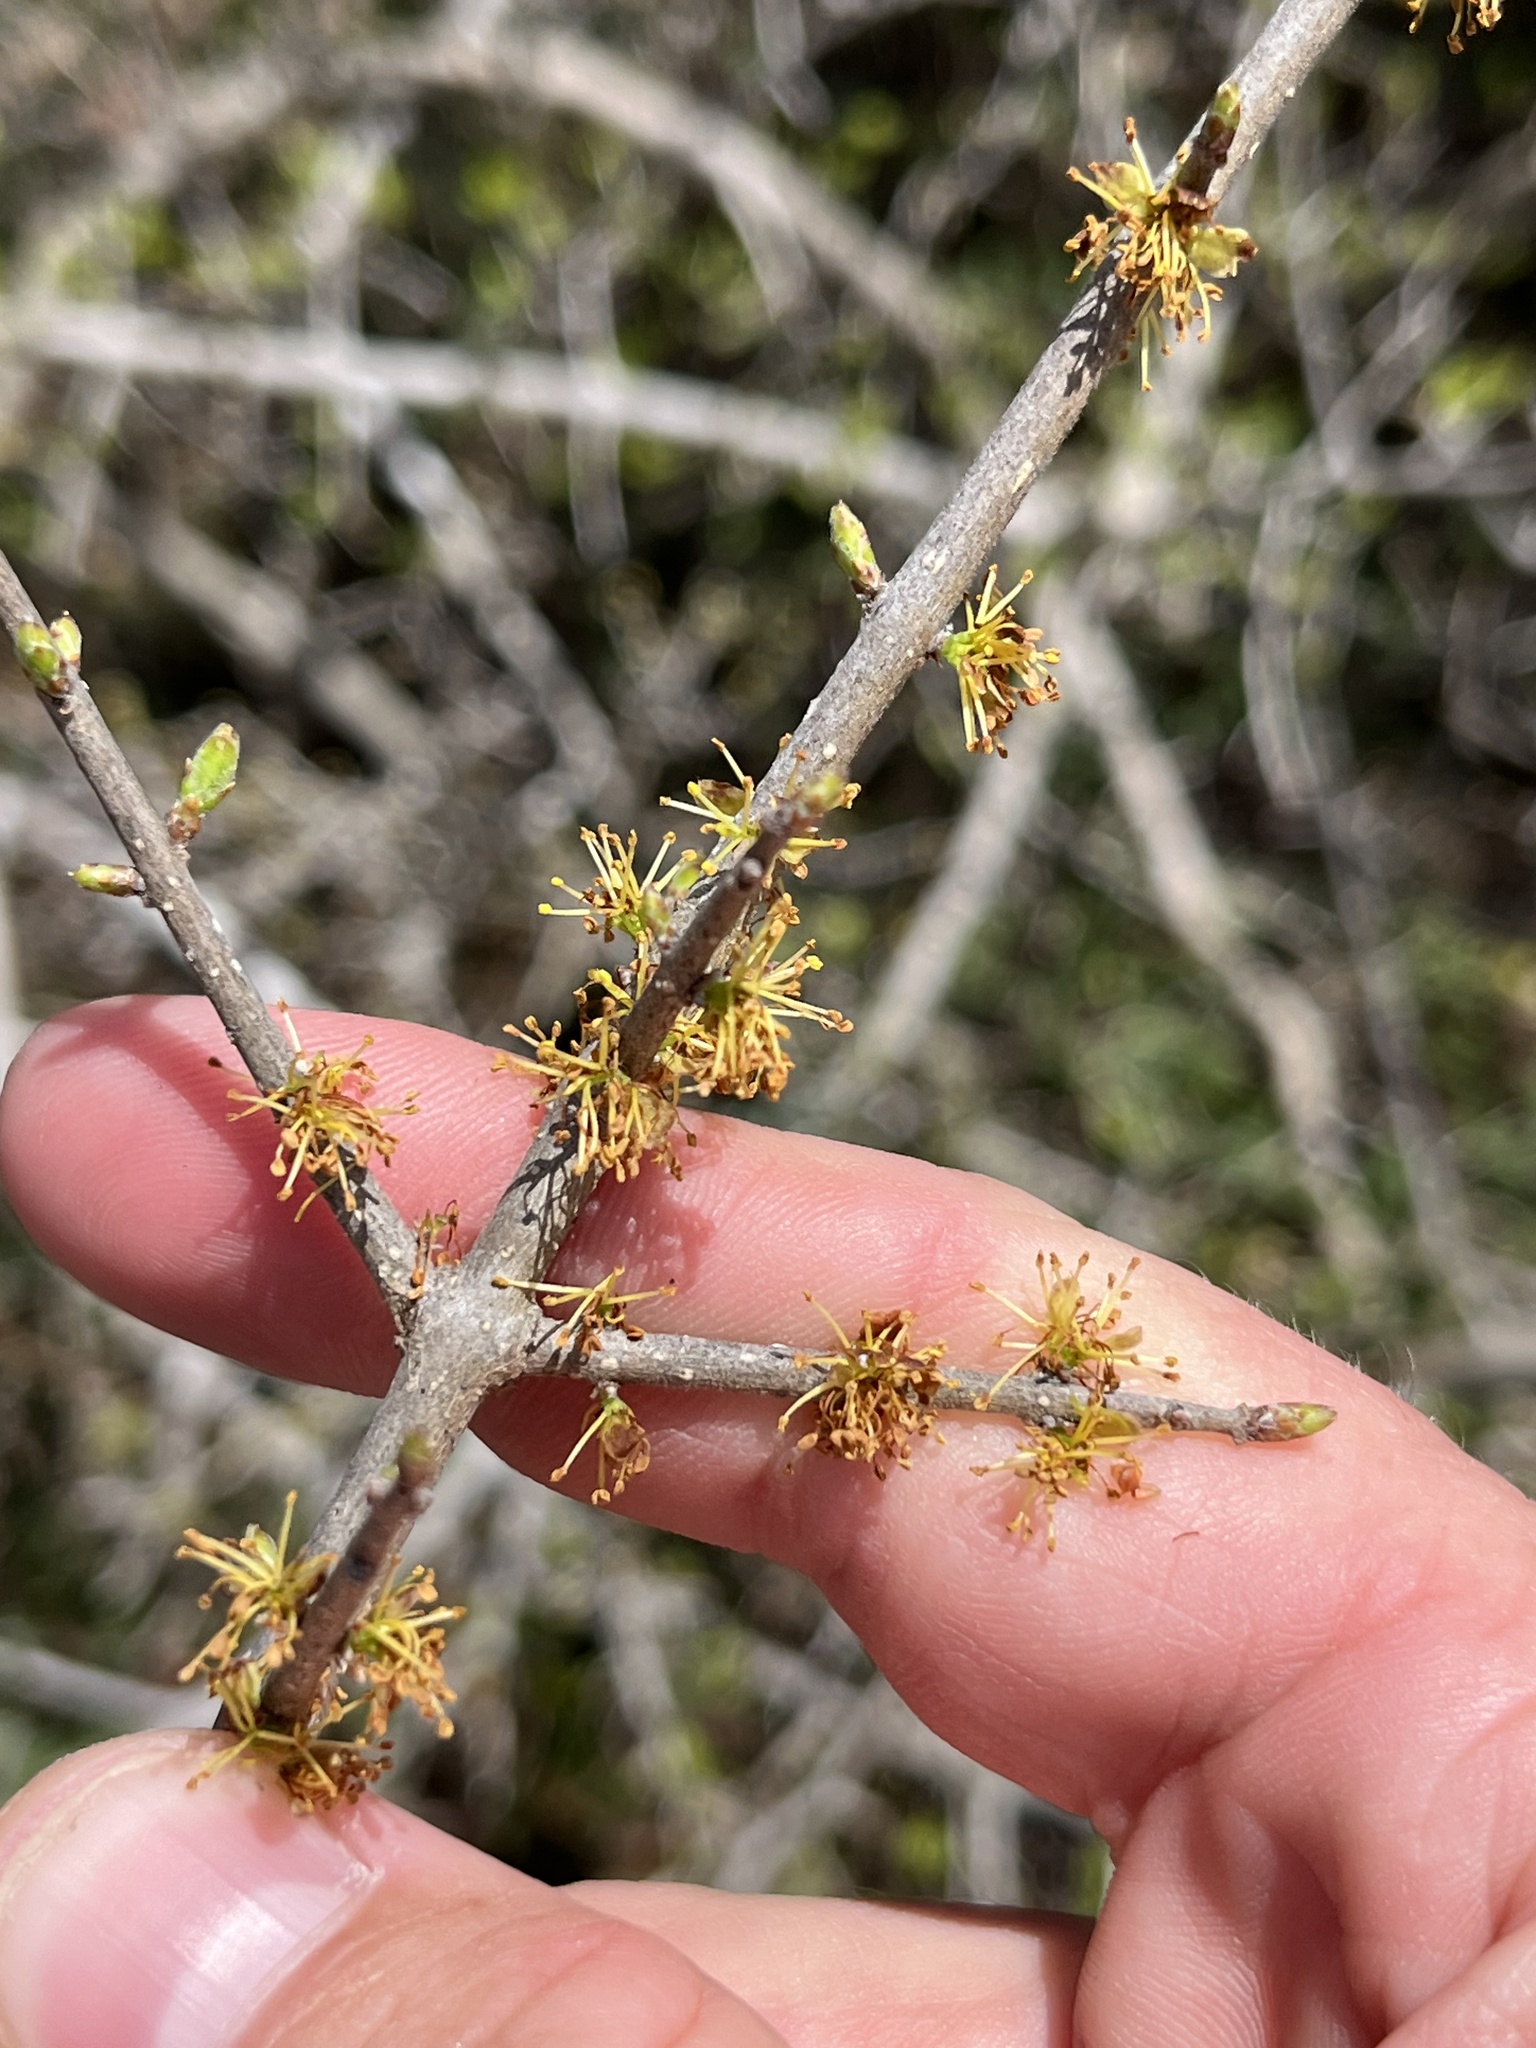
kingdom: Plantae
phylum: Tracheophyta
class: Magnoliopsida
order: Lamiales
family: Oleaceae
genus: Forestiera
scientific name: Forestiera pubescens
